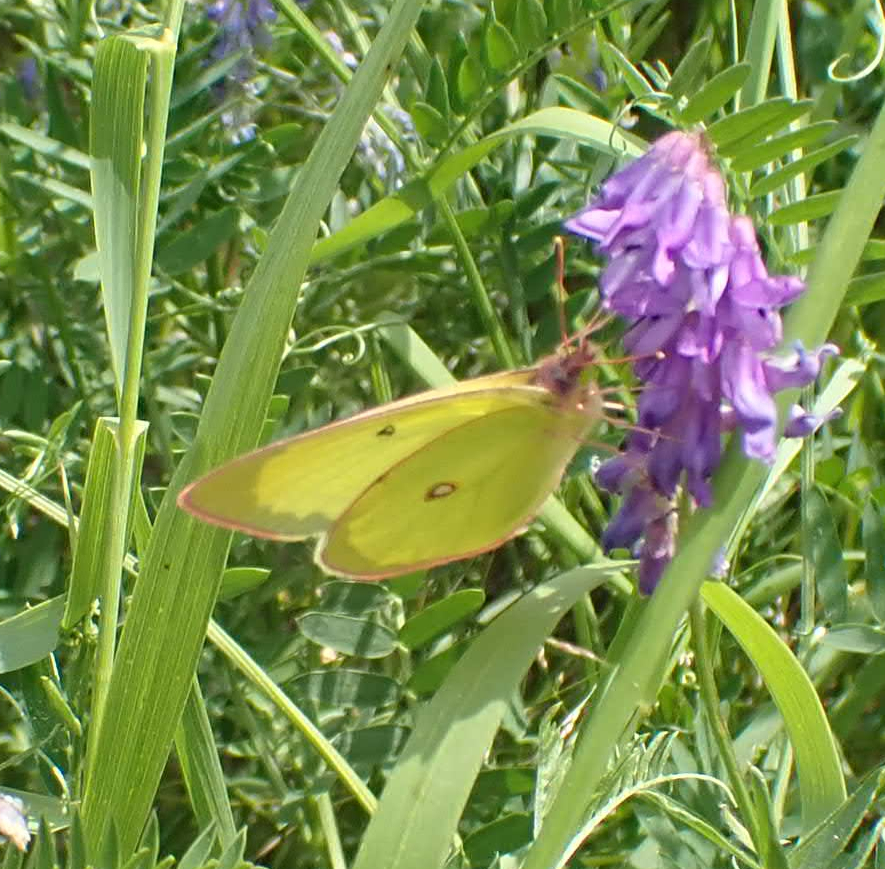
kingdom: Animalia
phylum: Arthropoda
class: Insecta
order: Lepidoptera
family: Pieridae
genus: Colias
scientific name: Colias interior
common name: Pink-edged sulphur
